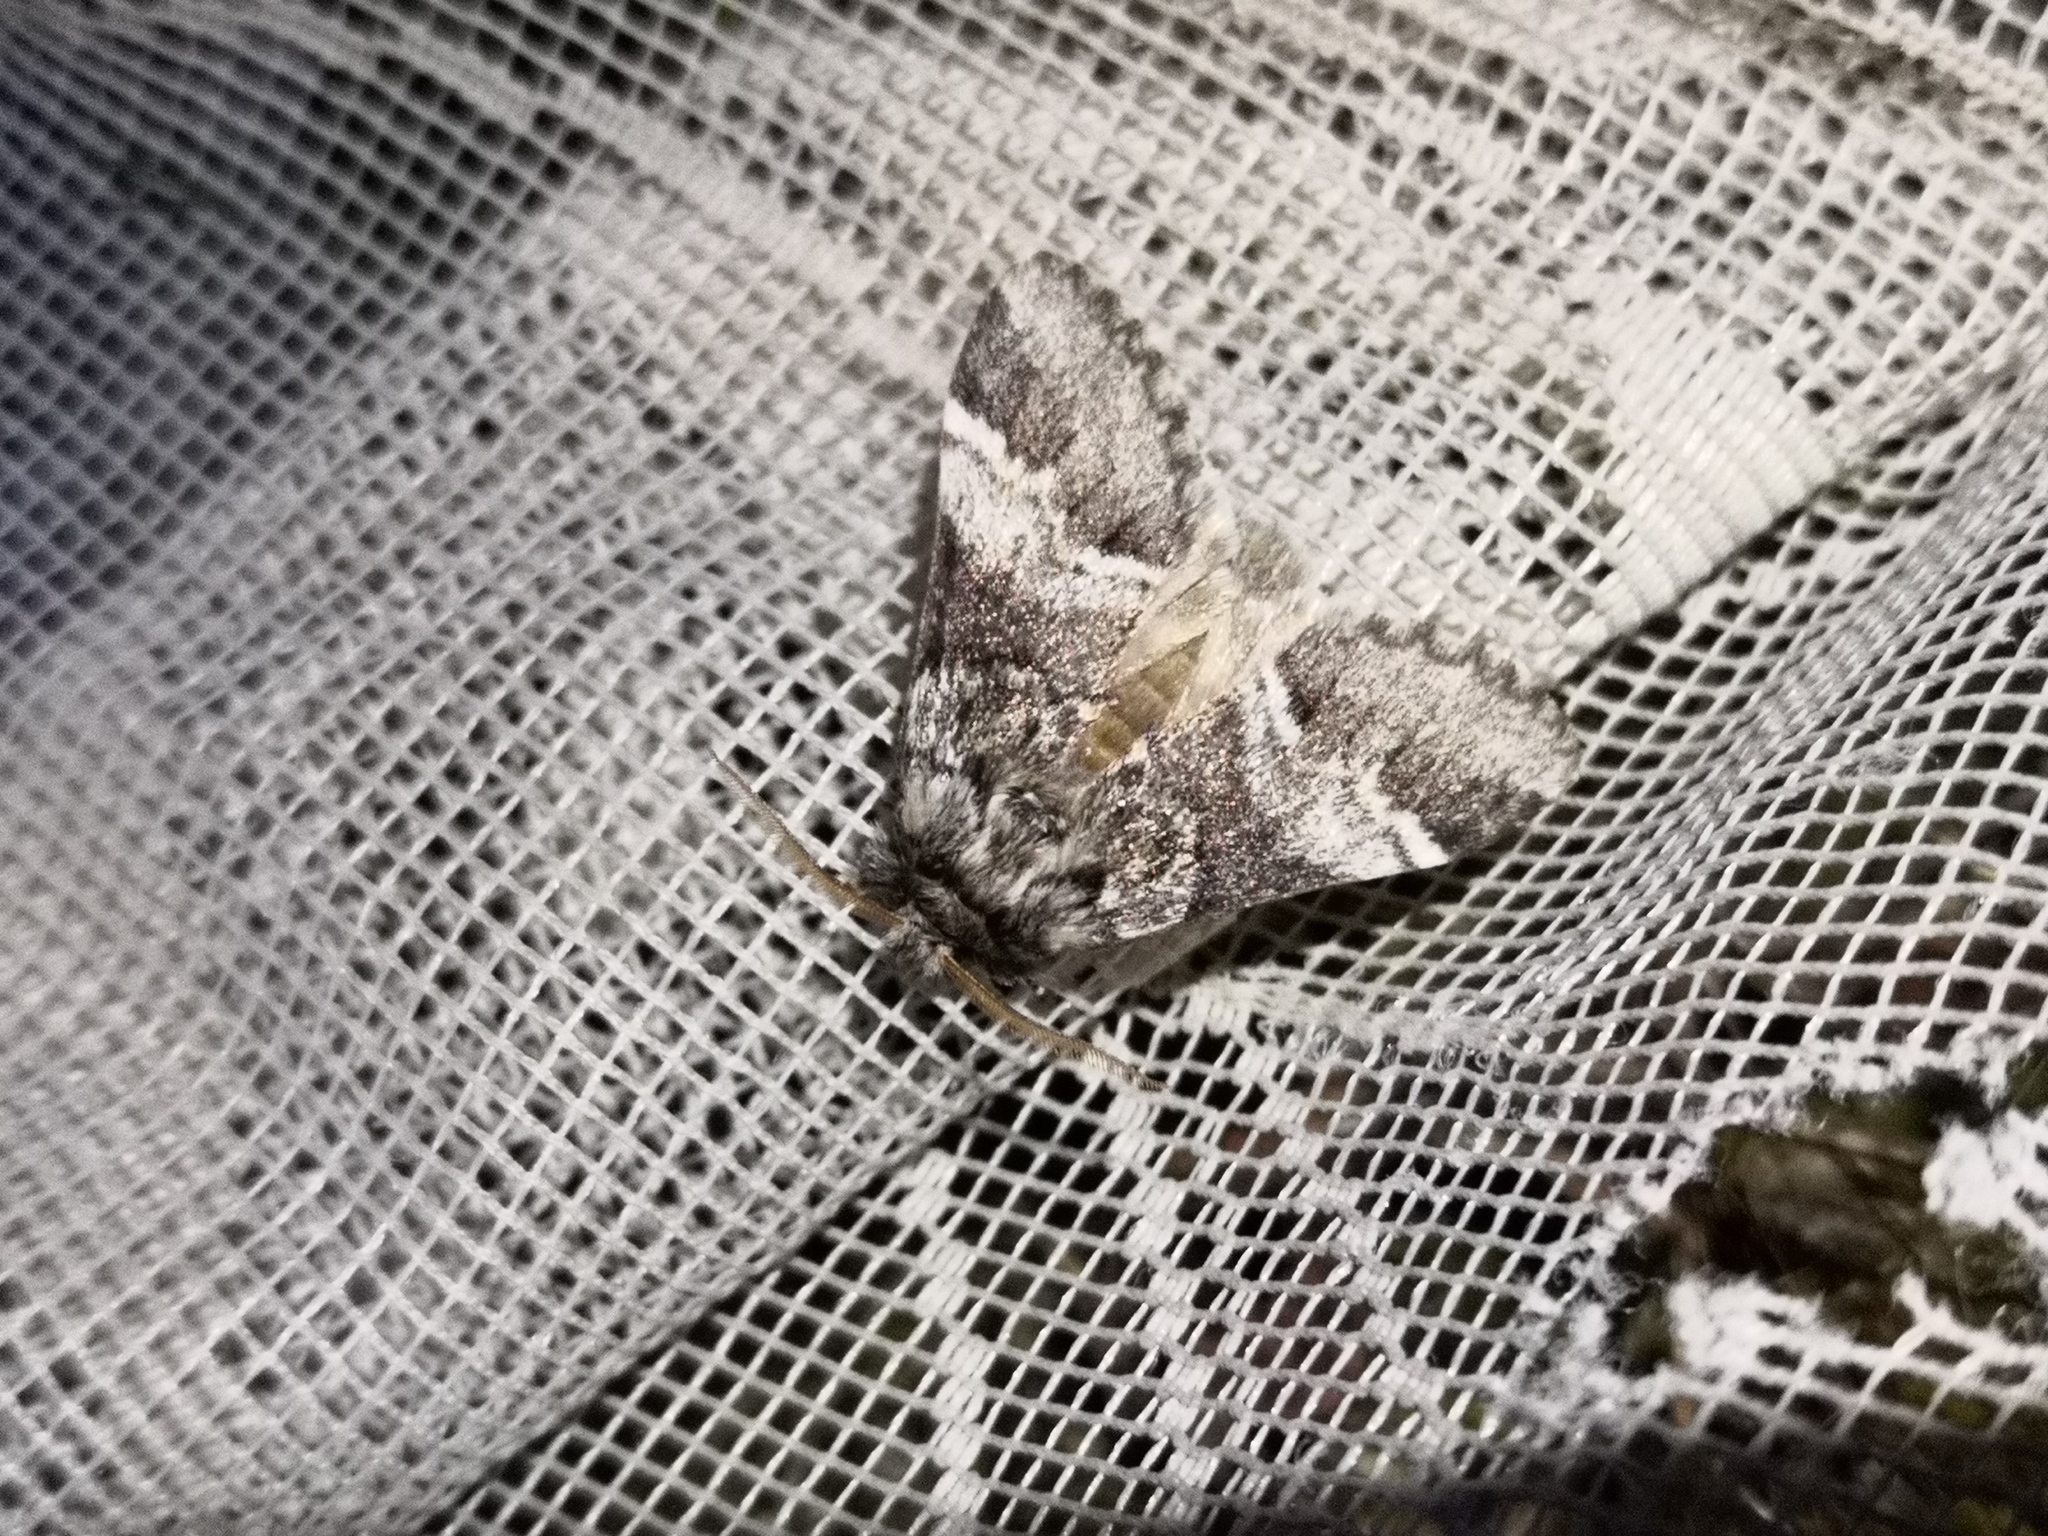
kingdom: Animalia
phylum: Arthropoda
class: Insecta
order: Lepidoptera
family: Notodontidae
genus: Drymonia
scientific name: Drymonia dodonaea
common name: Marbled brown
